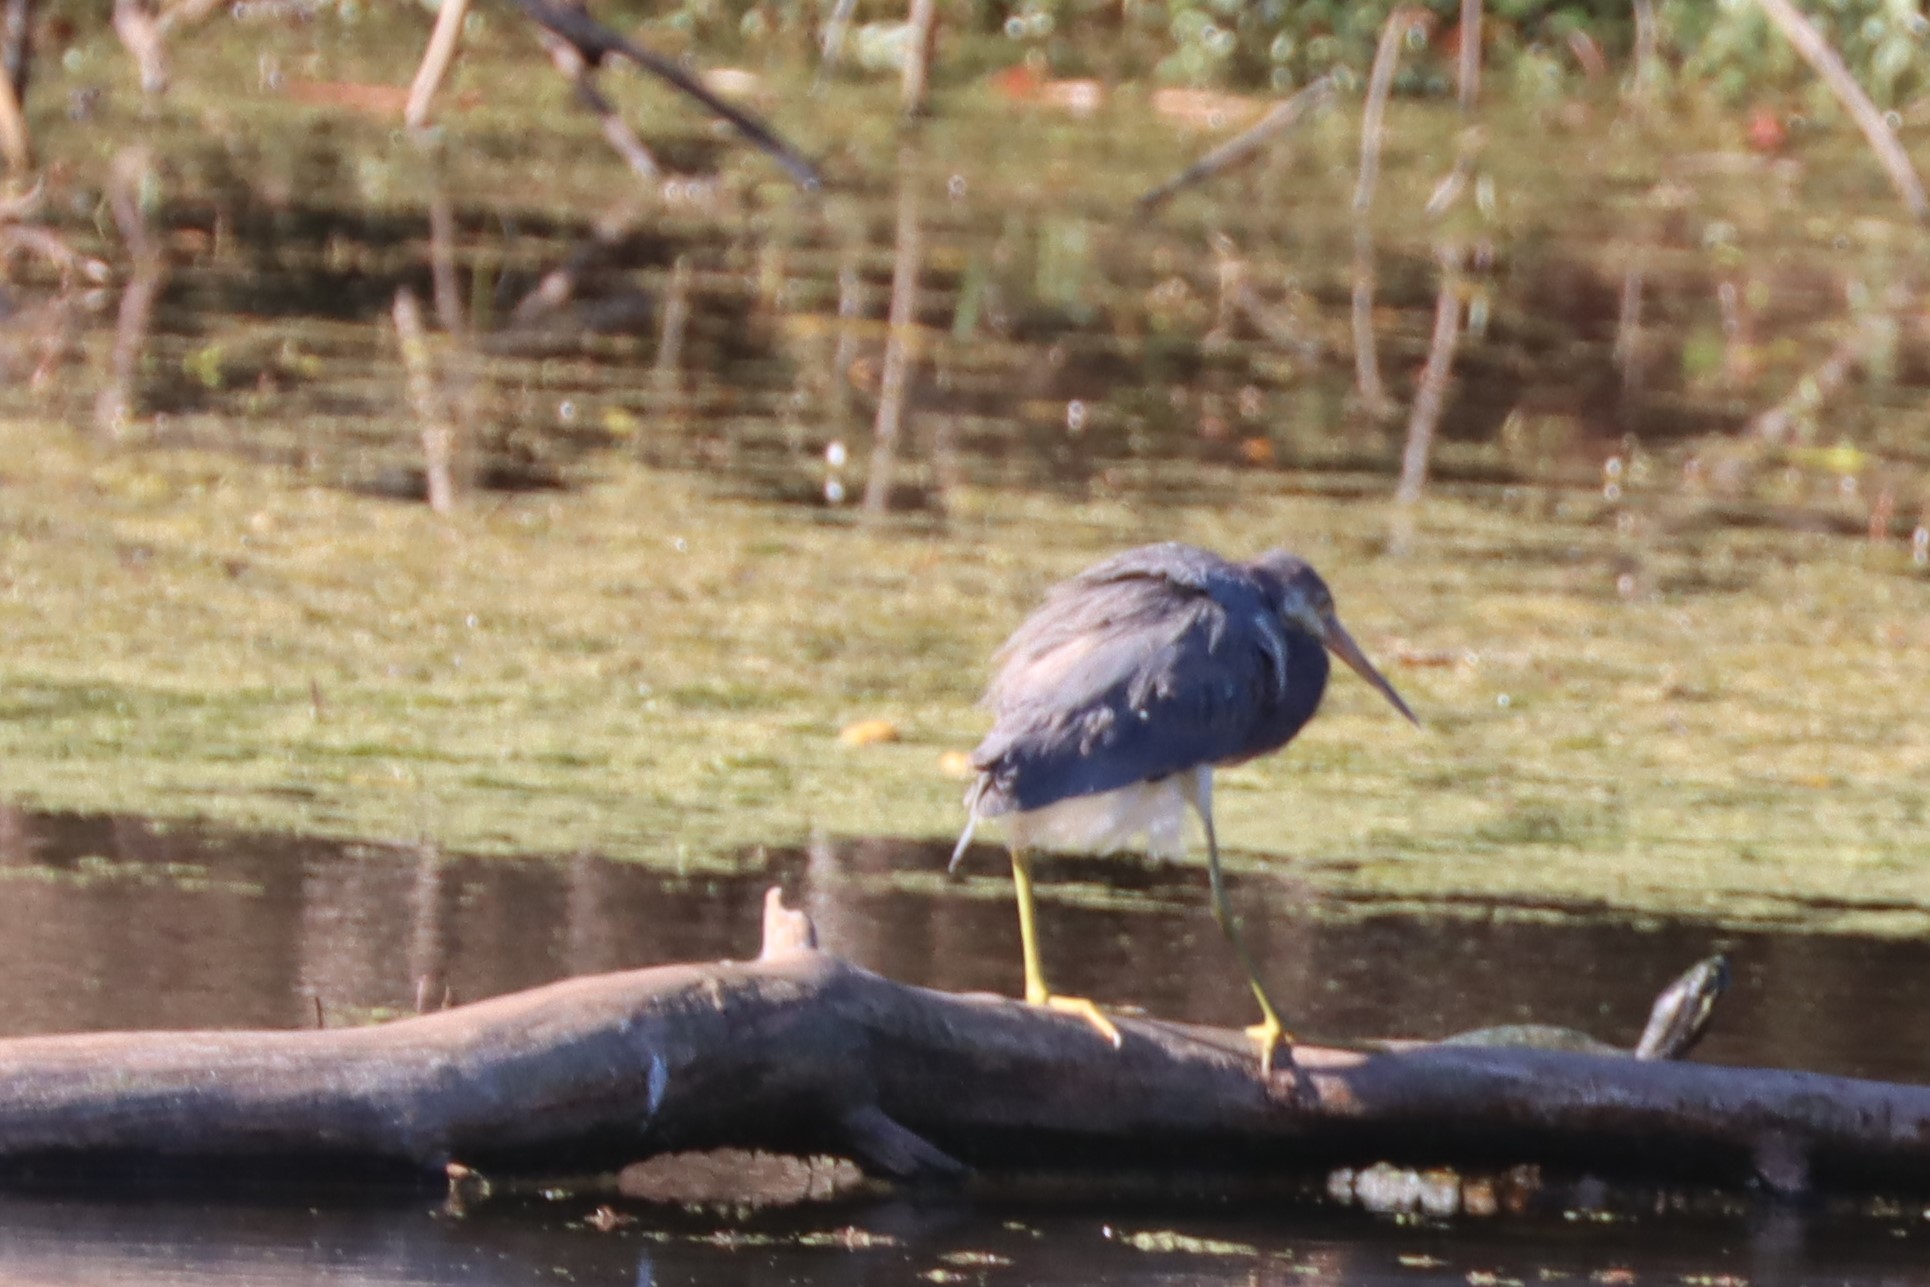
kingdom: Animalia
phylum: Chordata
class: Aves
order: Pelecaniformes
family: Ardeidae
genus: Egretta
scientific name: Egretta tricolor
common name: Tricolored heron
